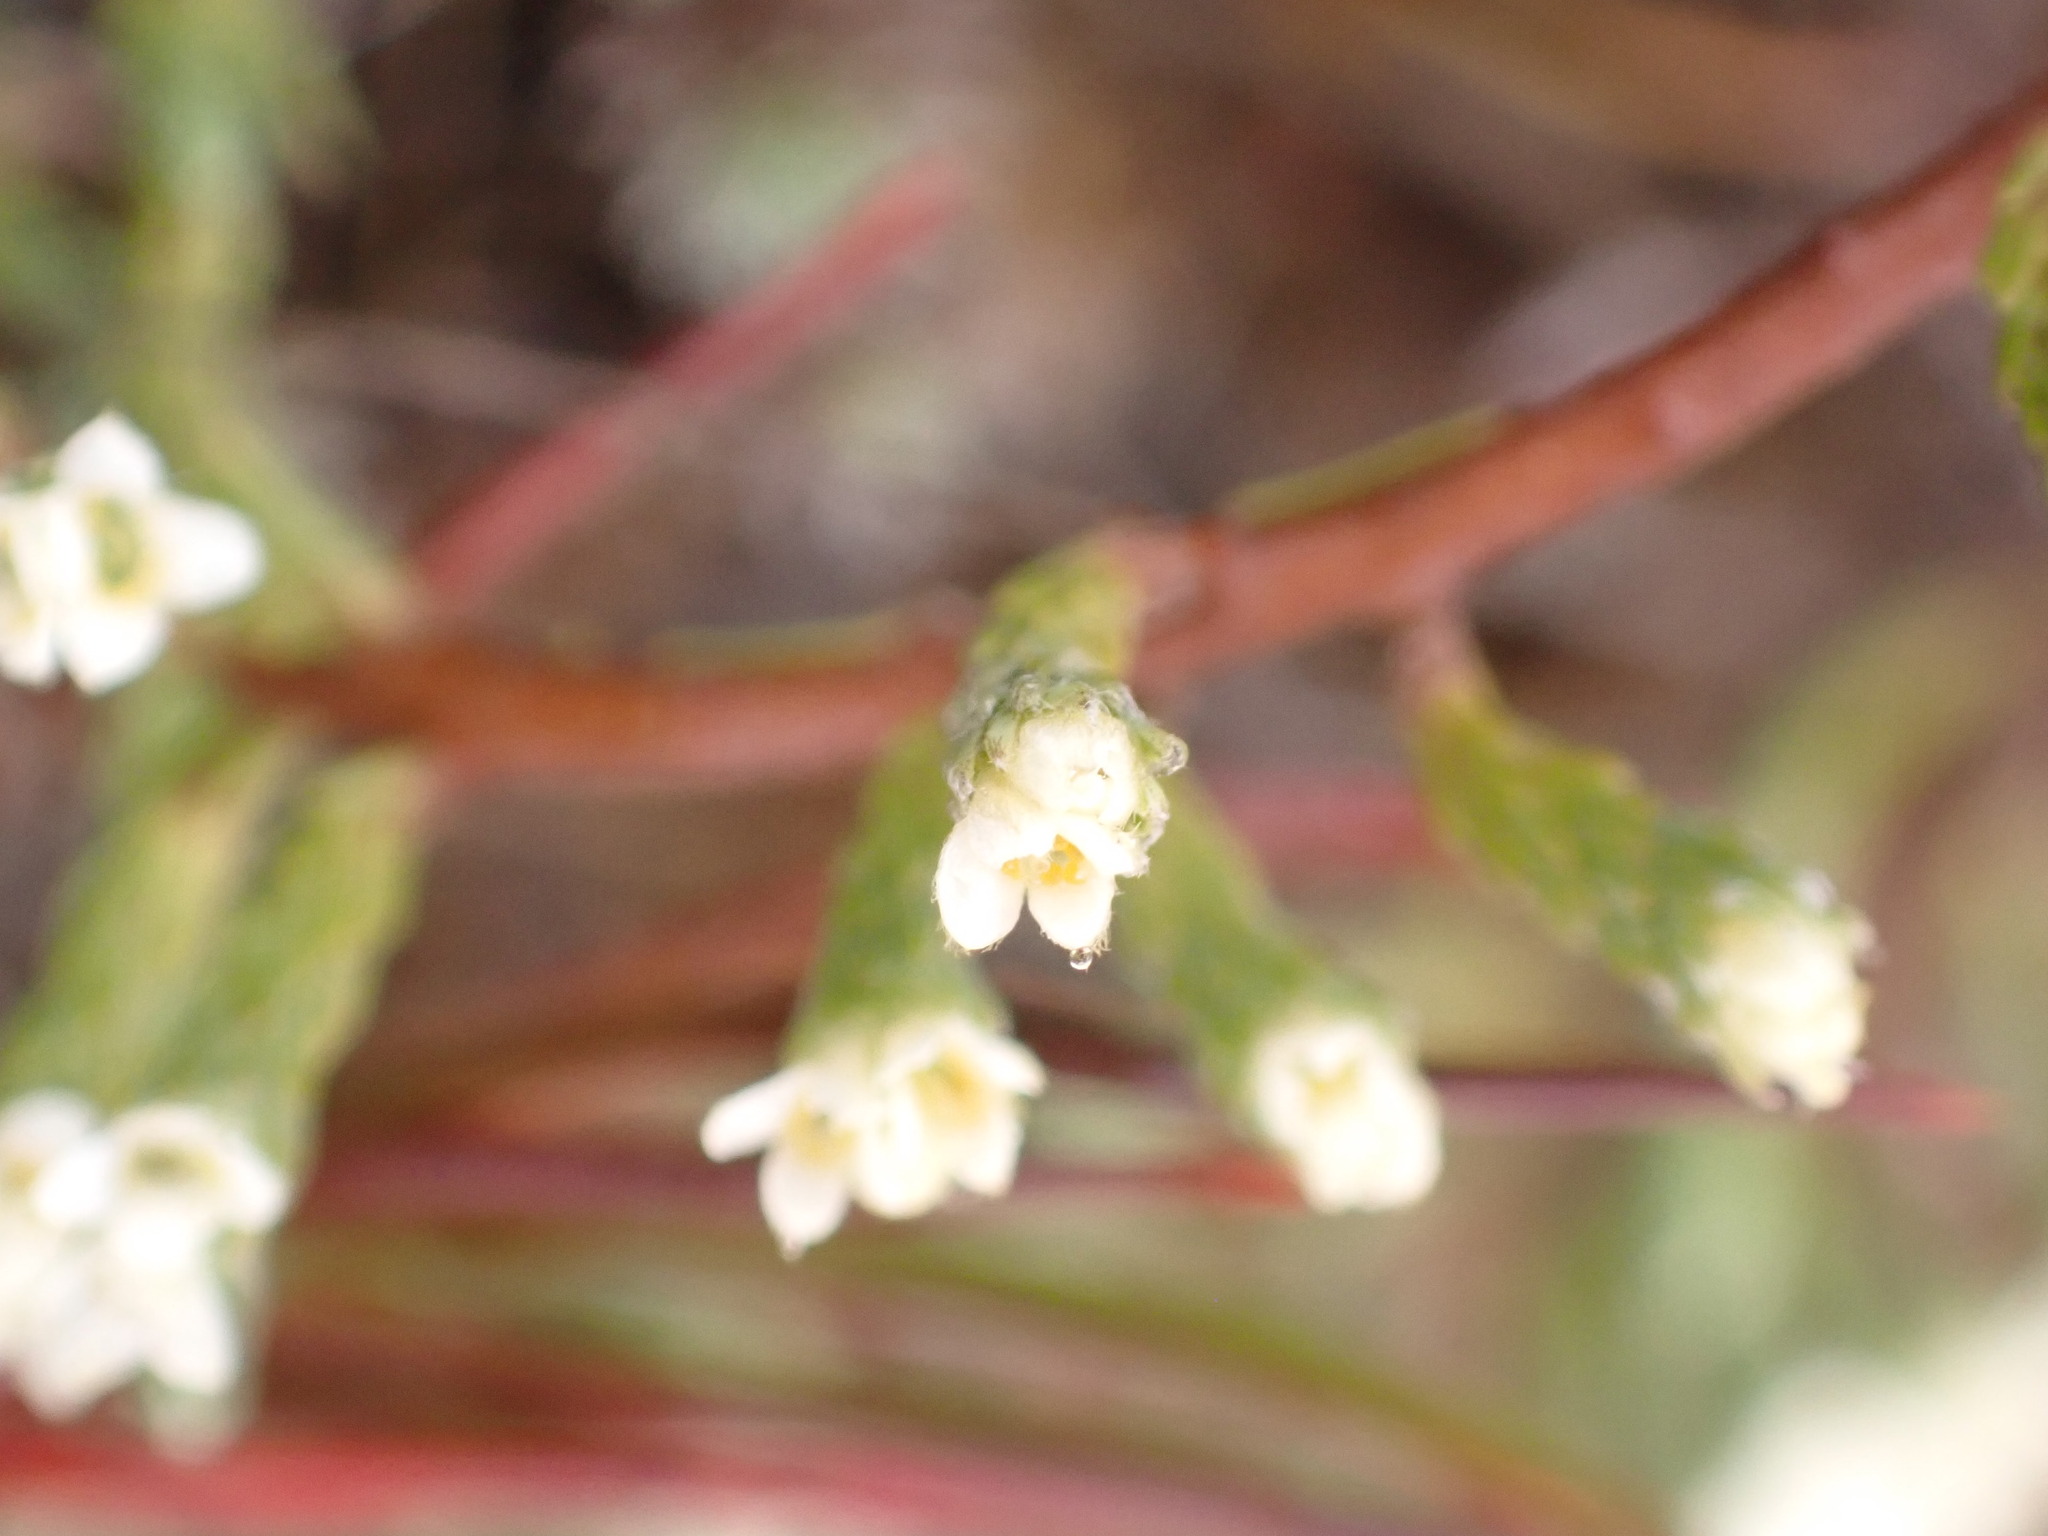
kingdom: Plantae
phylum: Tracheophyta
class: Magnoliopsida
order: Malvales
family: Thymelaeaceae
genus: Kelleria
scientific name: Kelleria dieffenbachii
